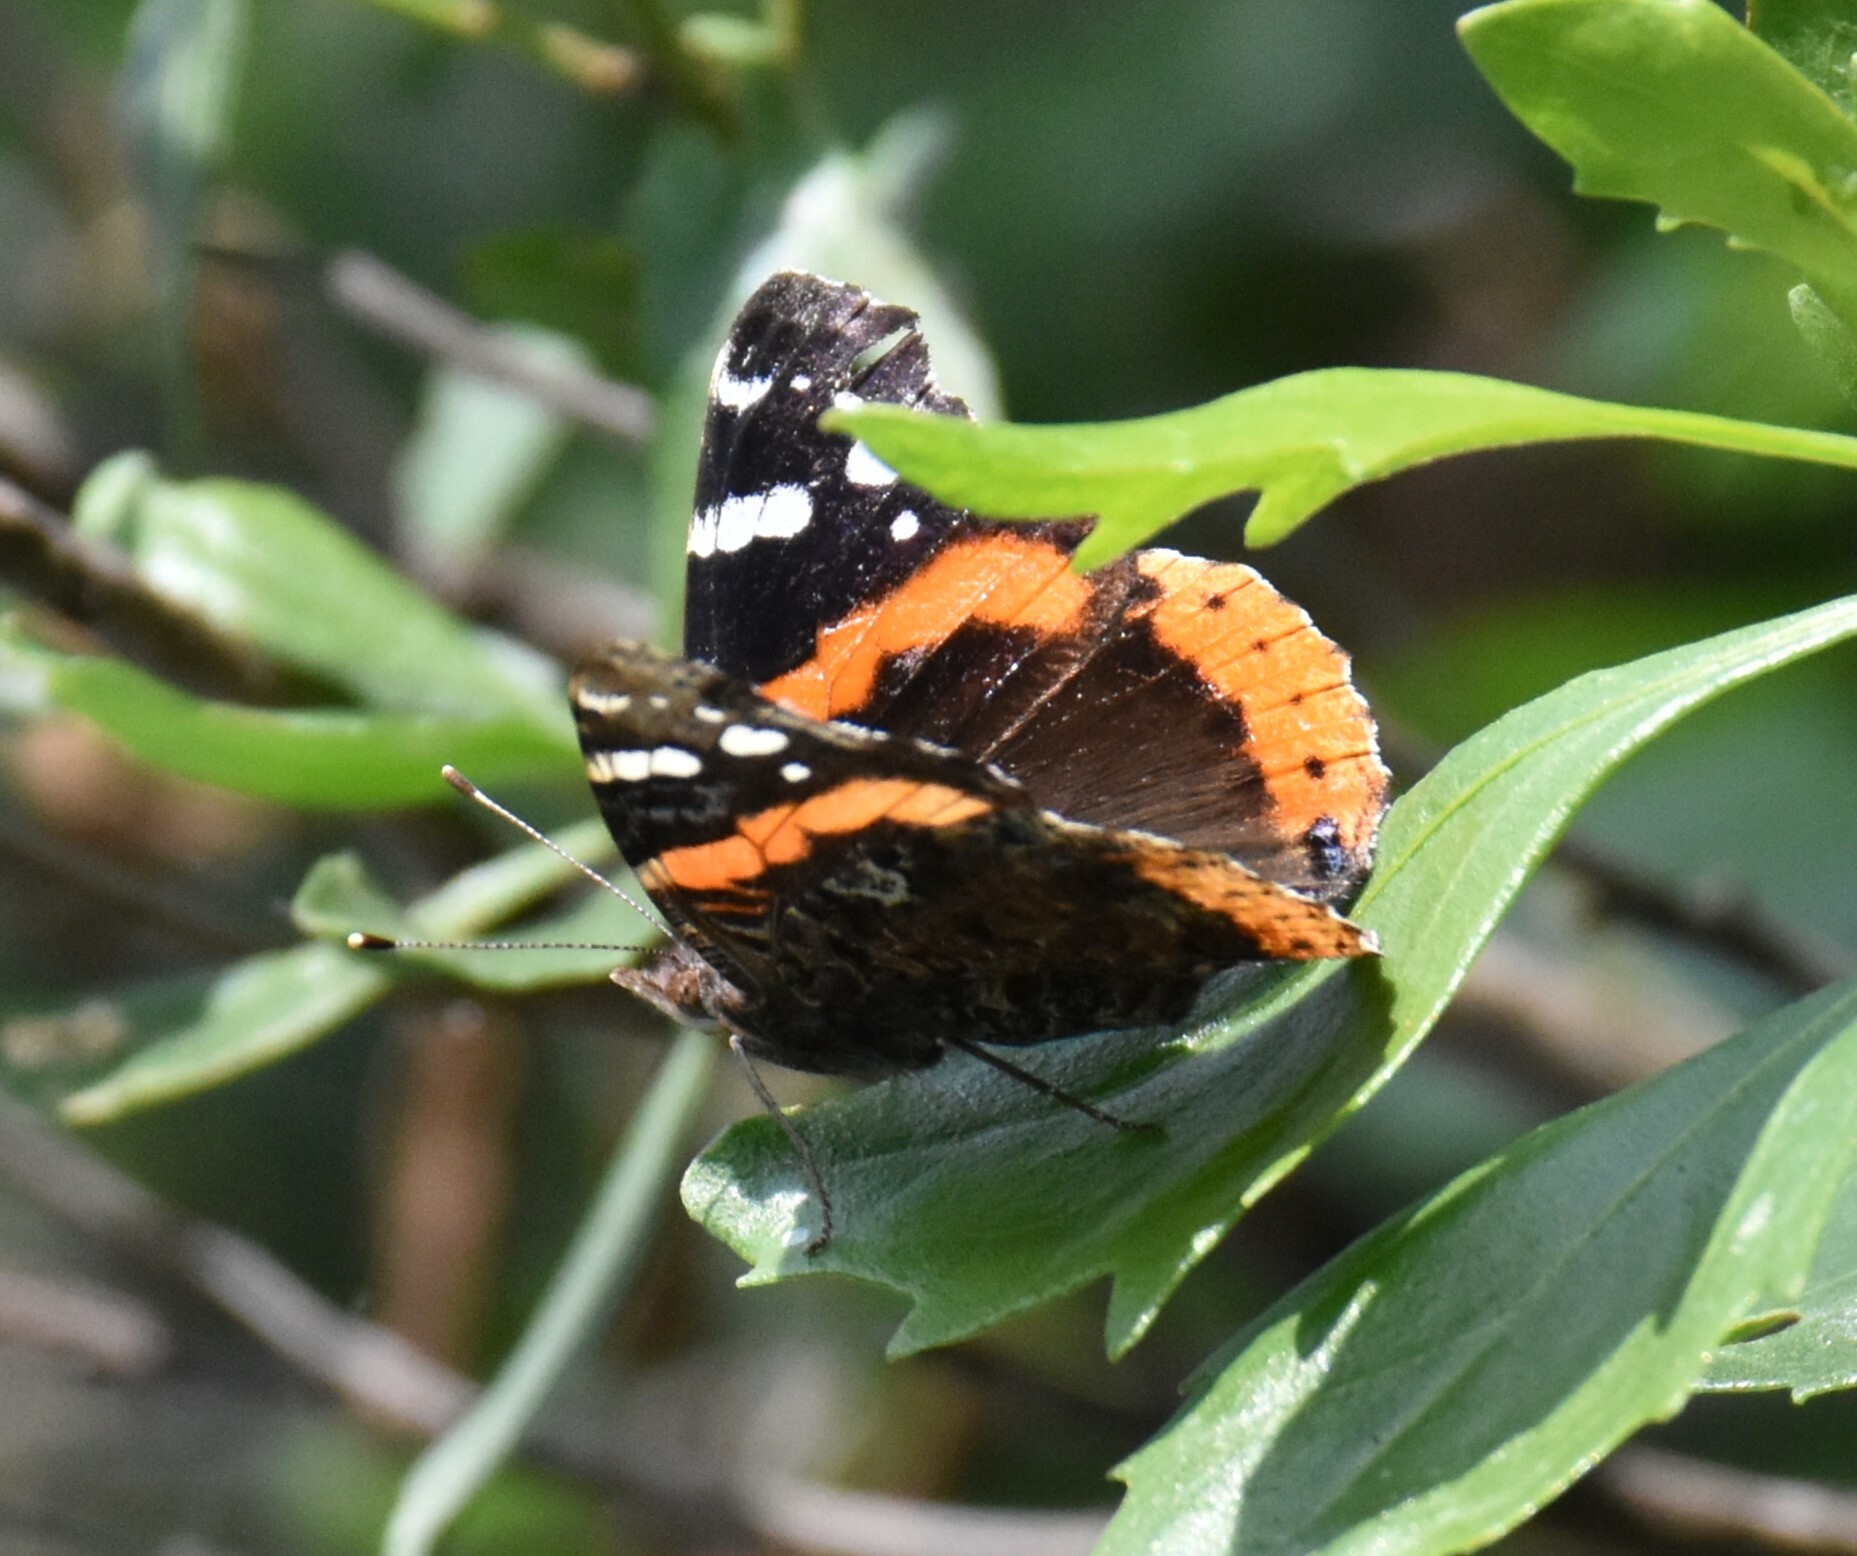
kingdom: Animalia
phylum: Arthropoda
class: Insecta
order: Lepidoptera
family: Nymphalidae
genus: Vanessa
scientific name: Vanessa atalanta
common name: Red admiral
